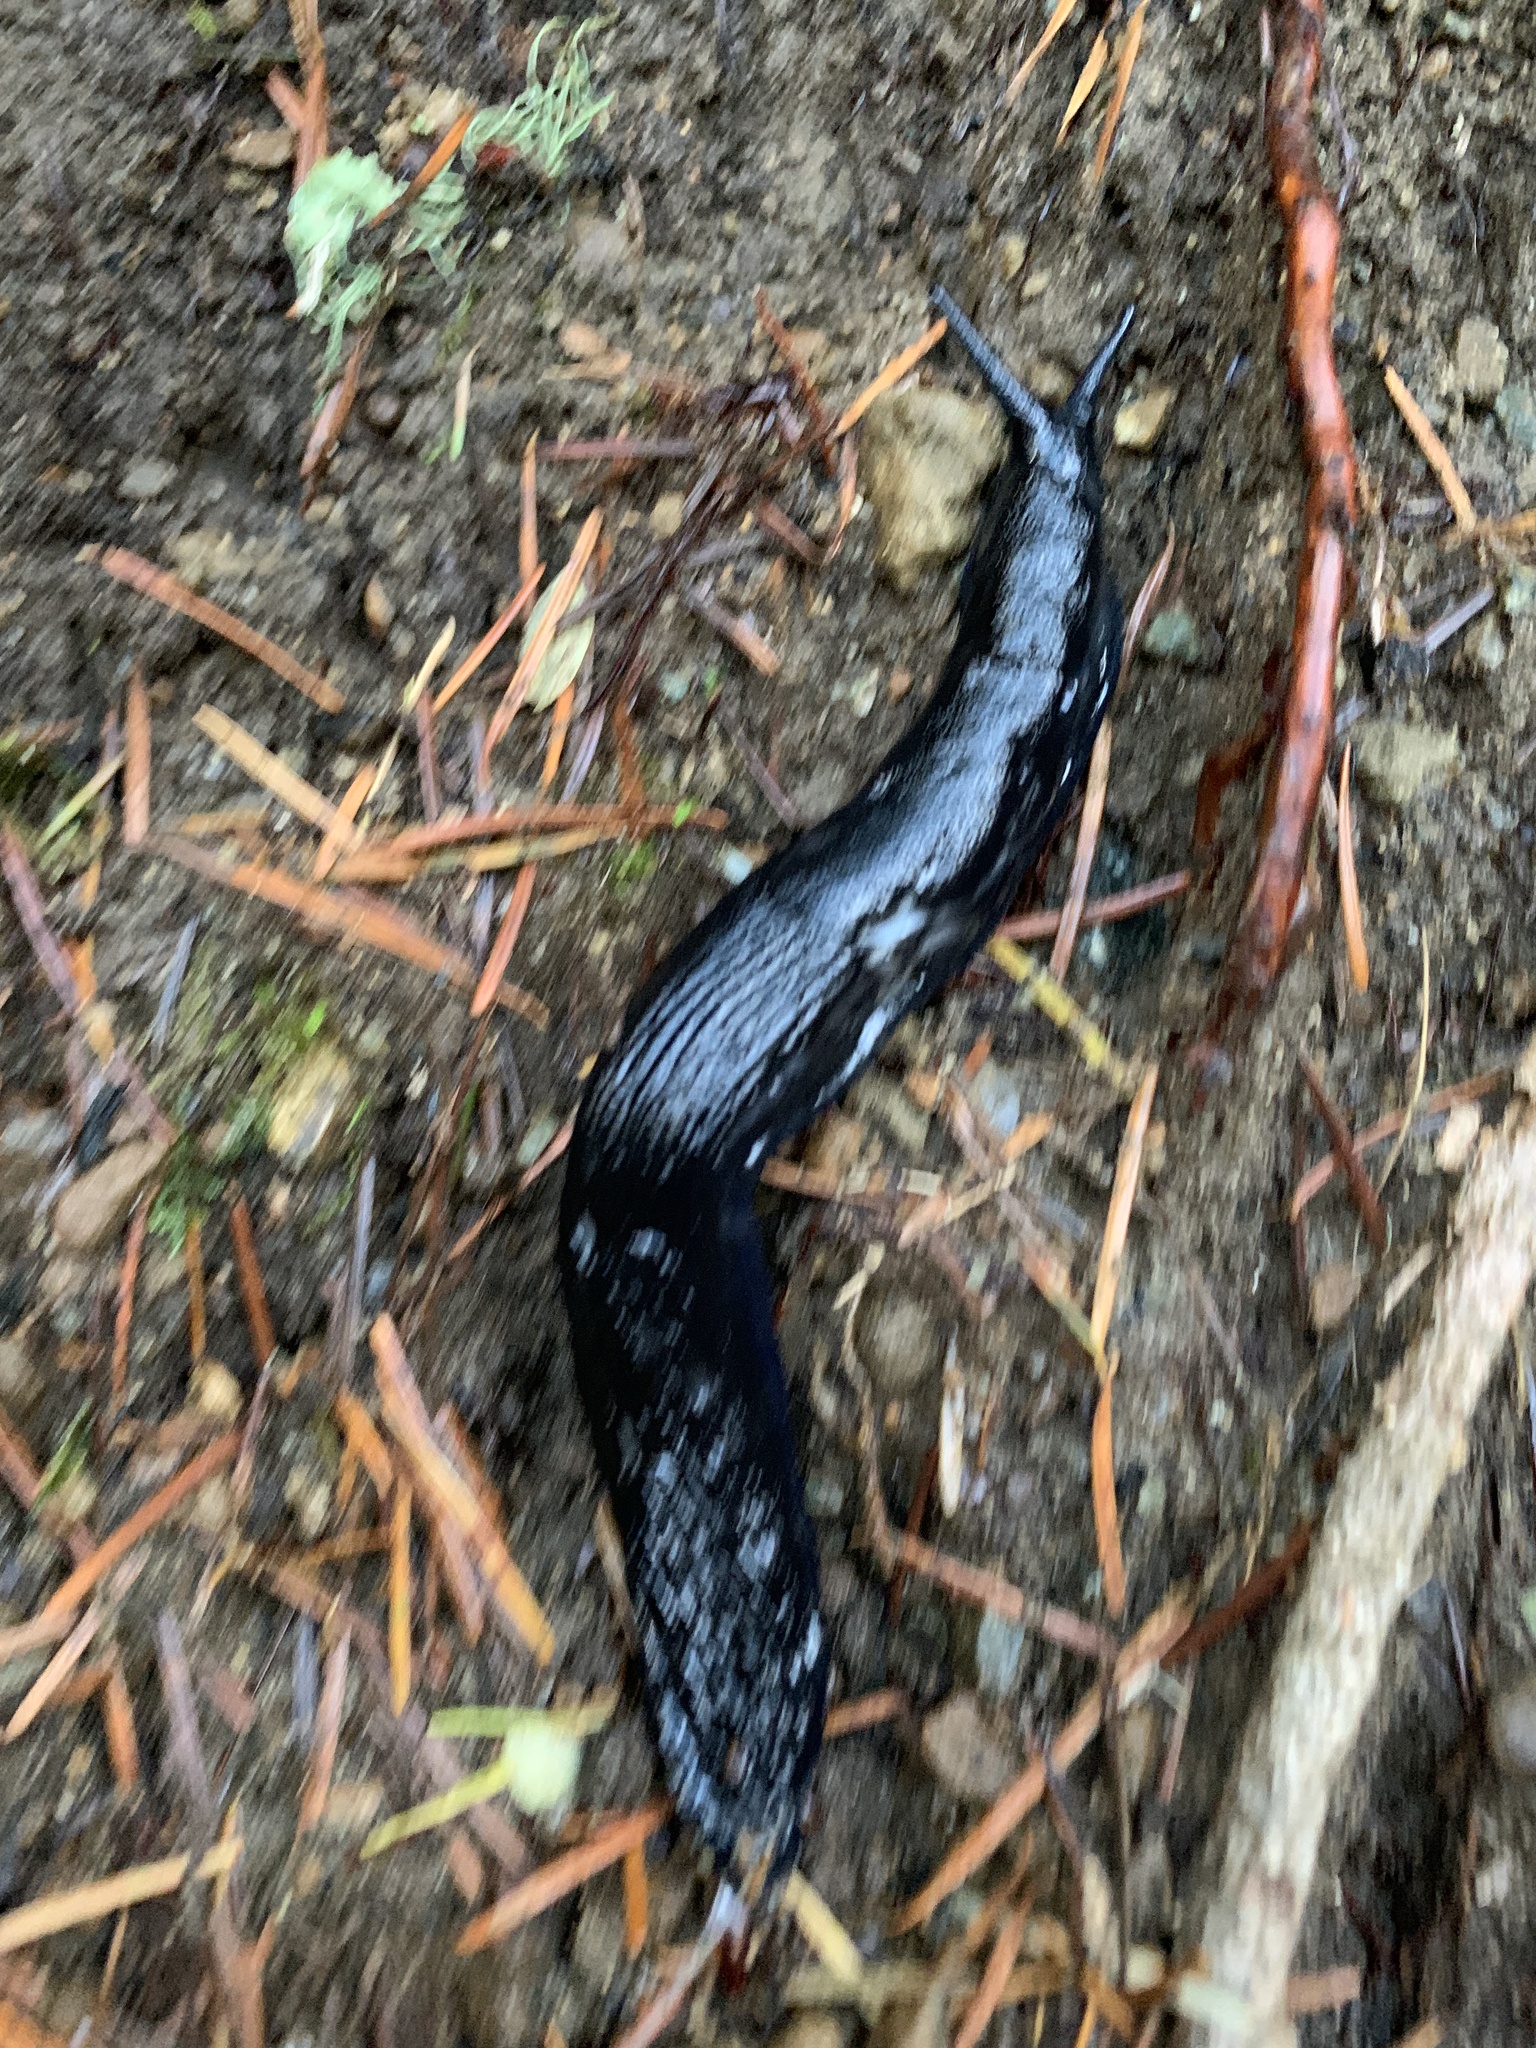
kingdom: Animalia
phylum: Mollusca
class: Gastropoda
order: Stylommatophora
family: Arionidae
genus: Arion
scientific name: Arion
